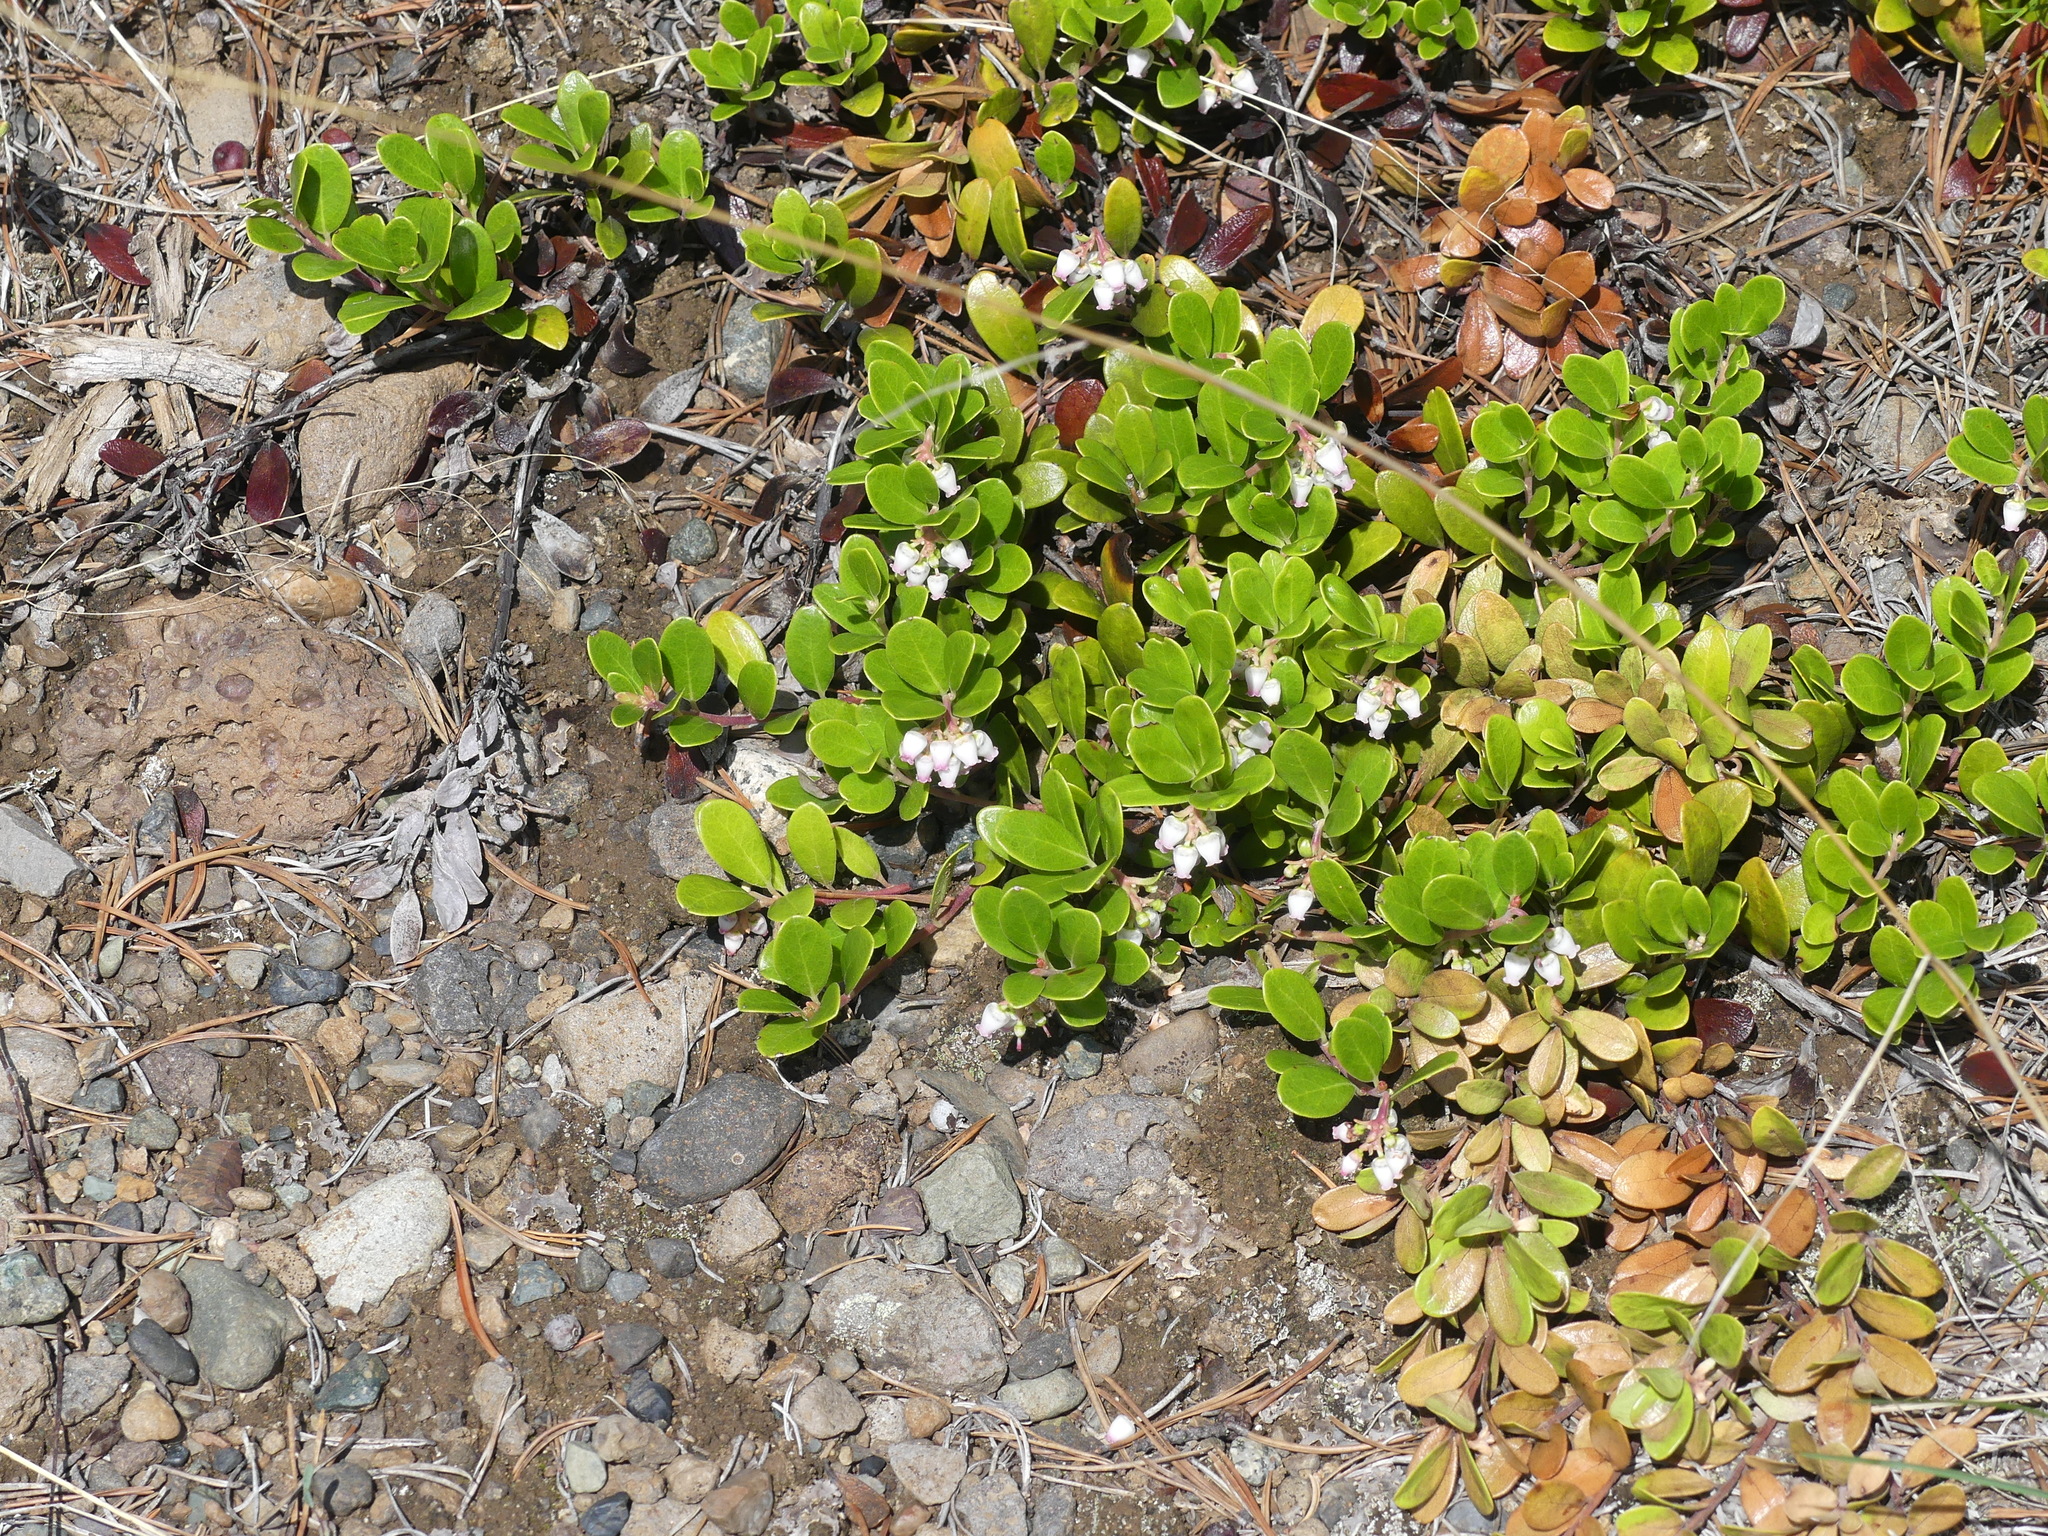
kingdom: Plantae
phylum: Tracheophyta
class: Magnoliopsida
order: Ericales
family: Ericaceae
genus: Arctostaphylos
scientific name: Arctostaphylos uva-ursi
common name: Bearberry
